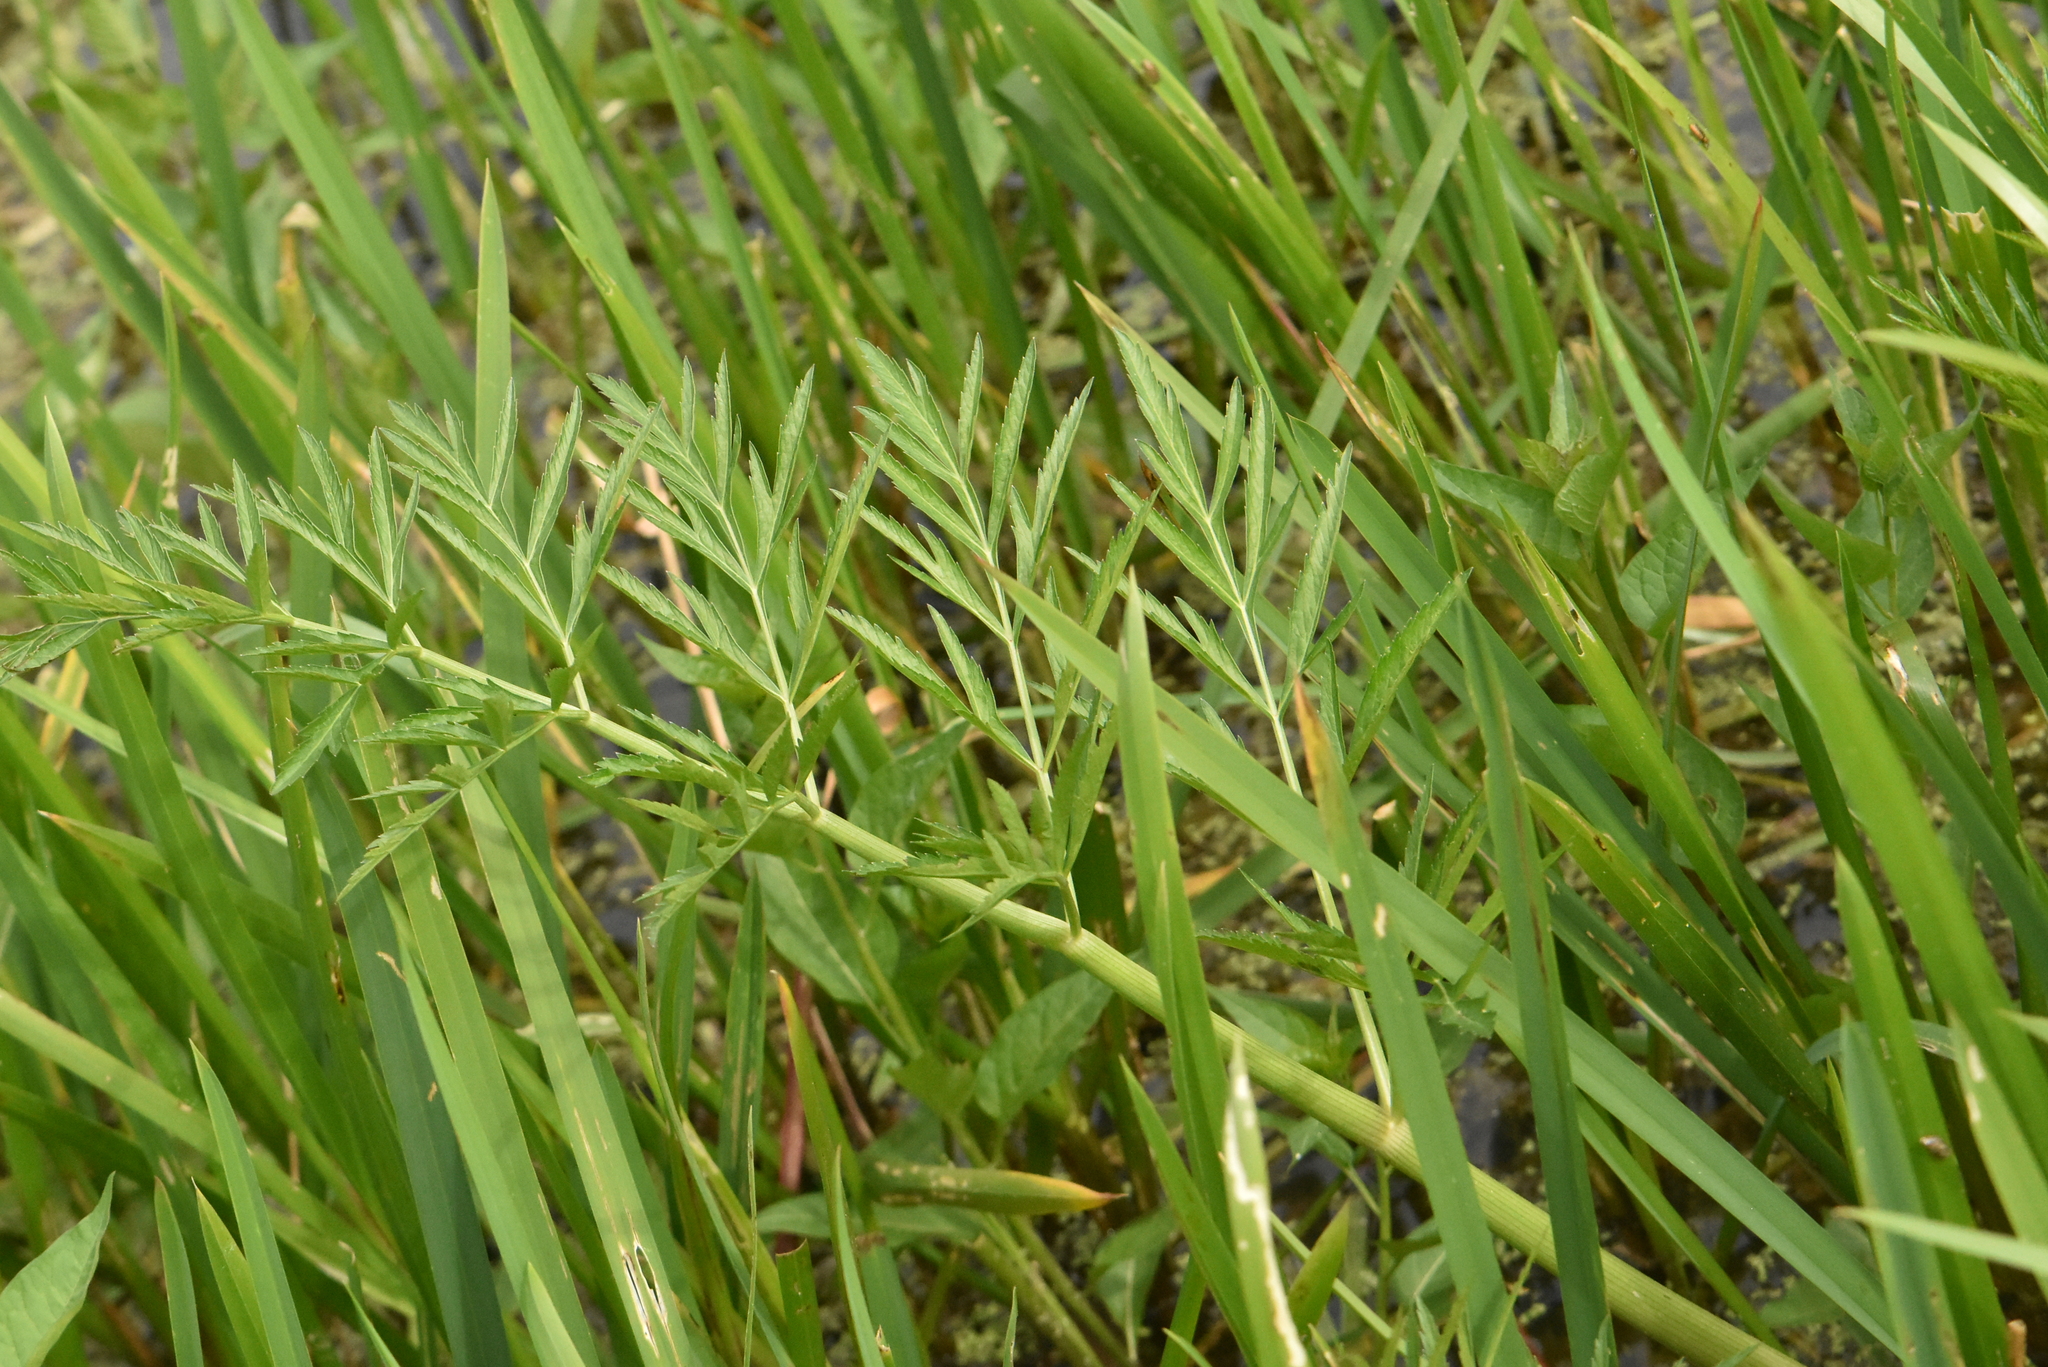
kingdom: Plantae
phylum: Tracheophyta
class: Magnoliopsida
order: Apiales
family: Apiaceae
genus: Cicuta
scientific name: Cicuta virosa
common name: Cowbane
